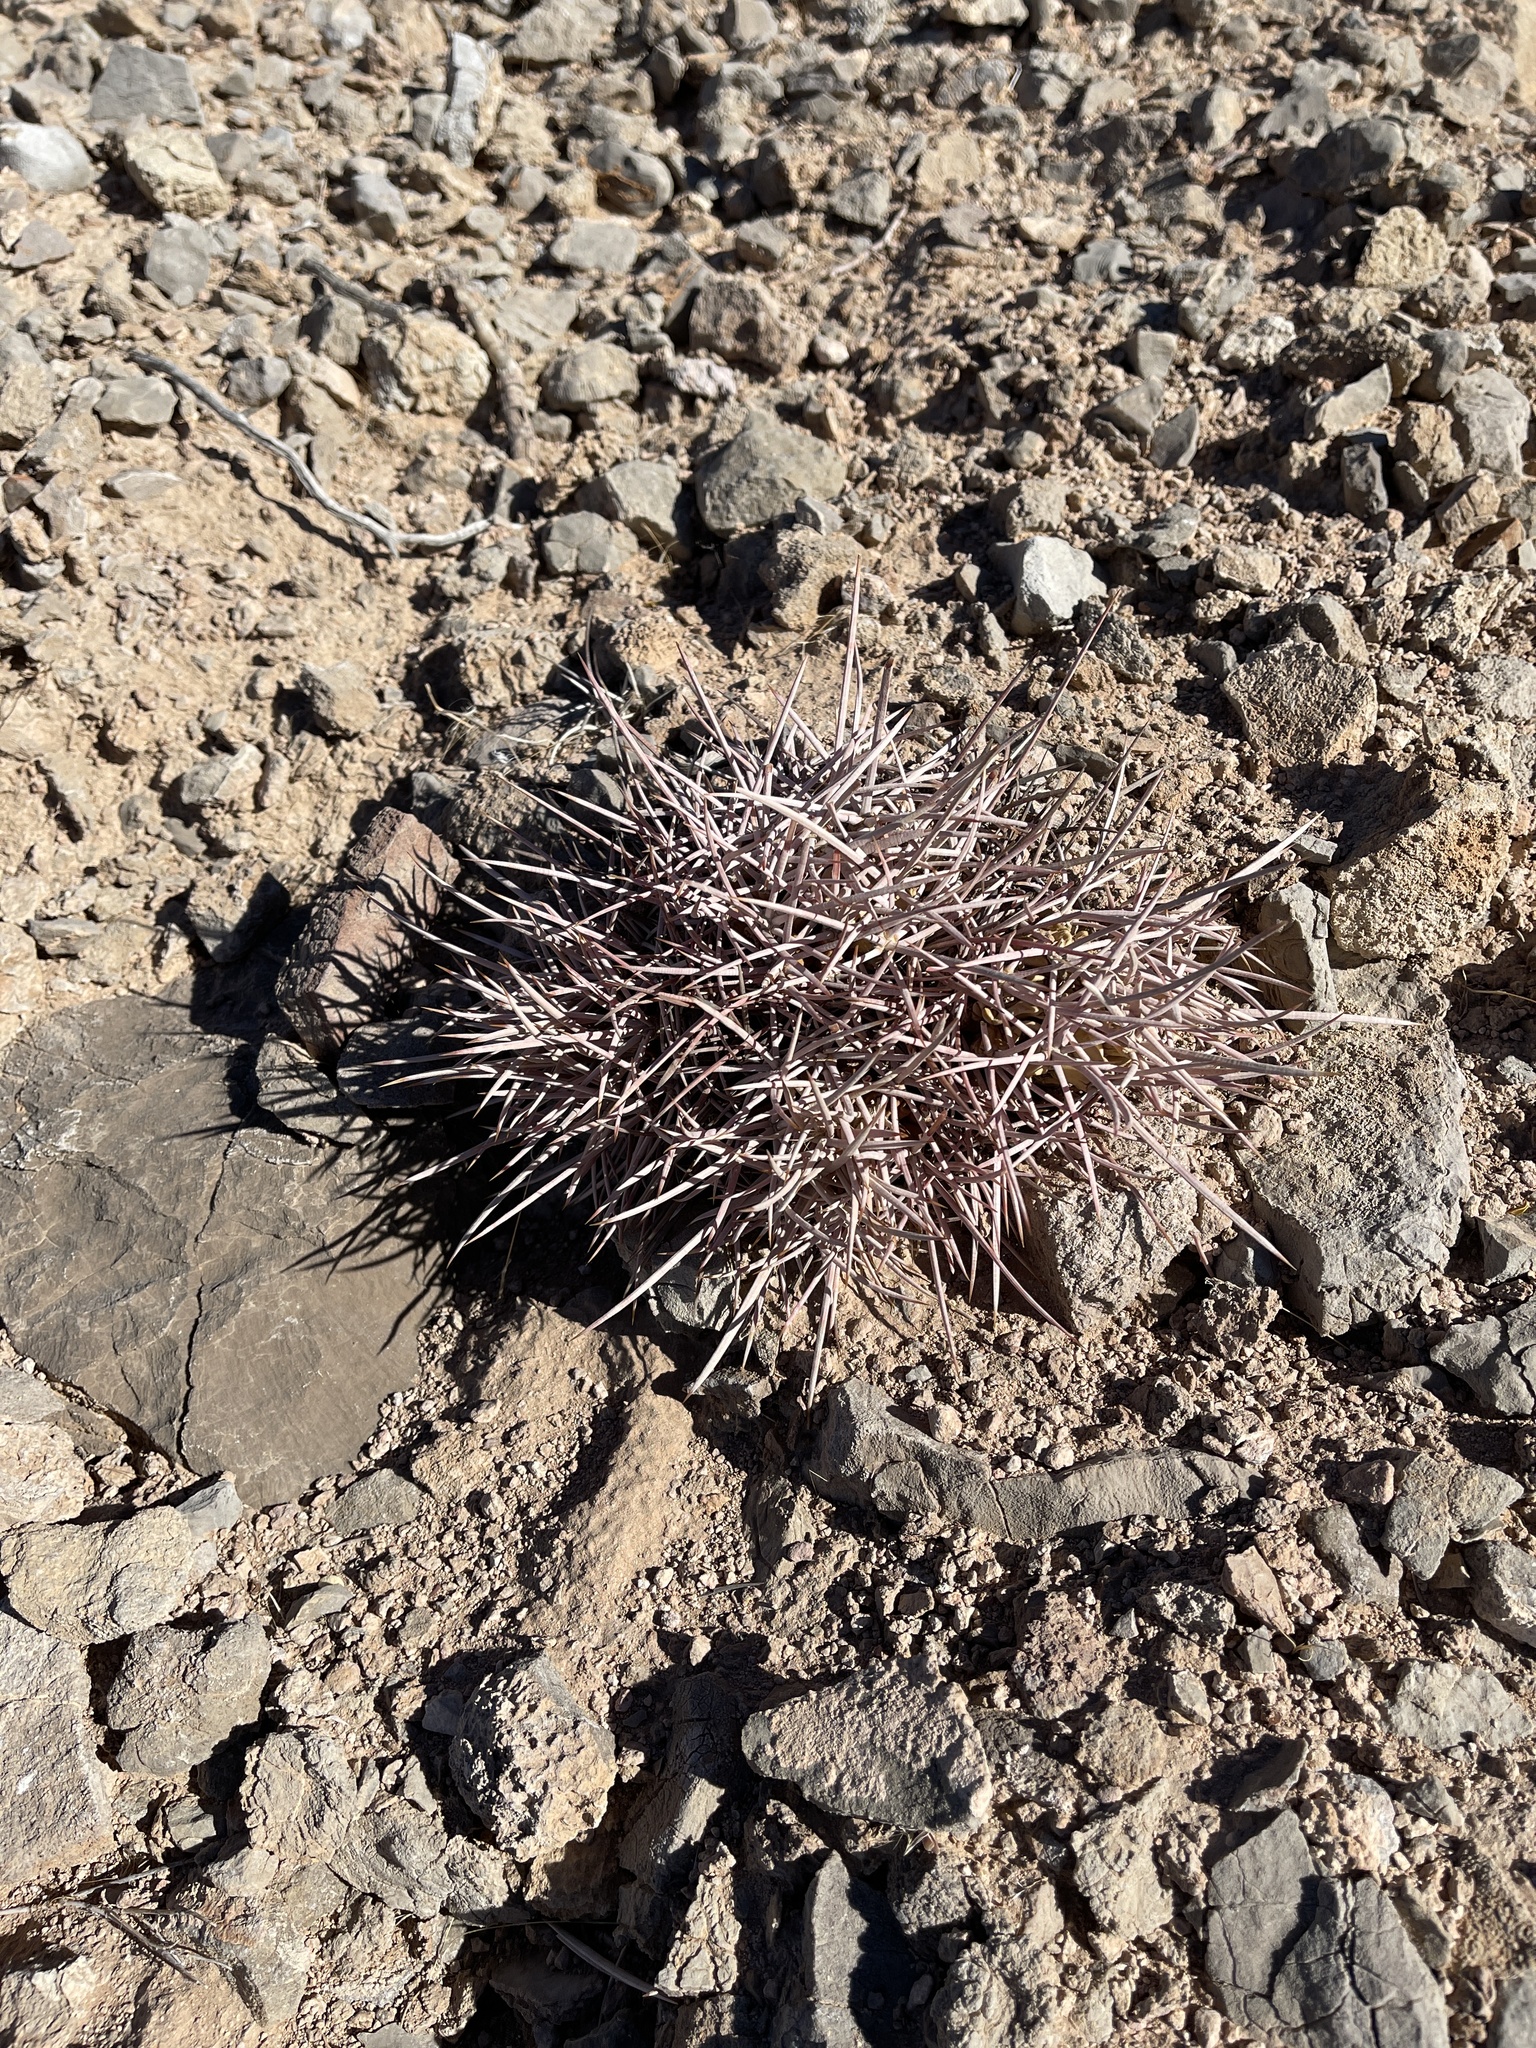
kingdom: Plantae
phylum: Tracheophyta
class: Magnoliopsida
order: Caryophyllales
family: Cactaceae
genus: Echinocactus
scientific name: Echinocactus polycephalus
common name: Cottontop cactus
